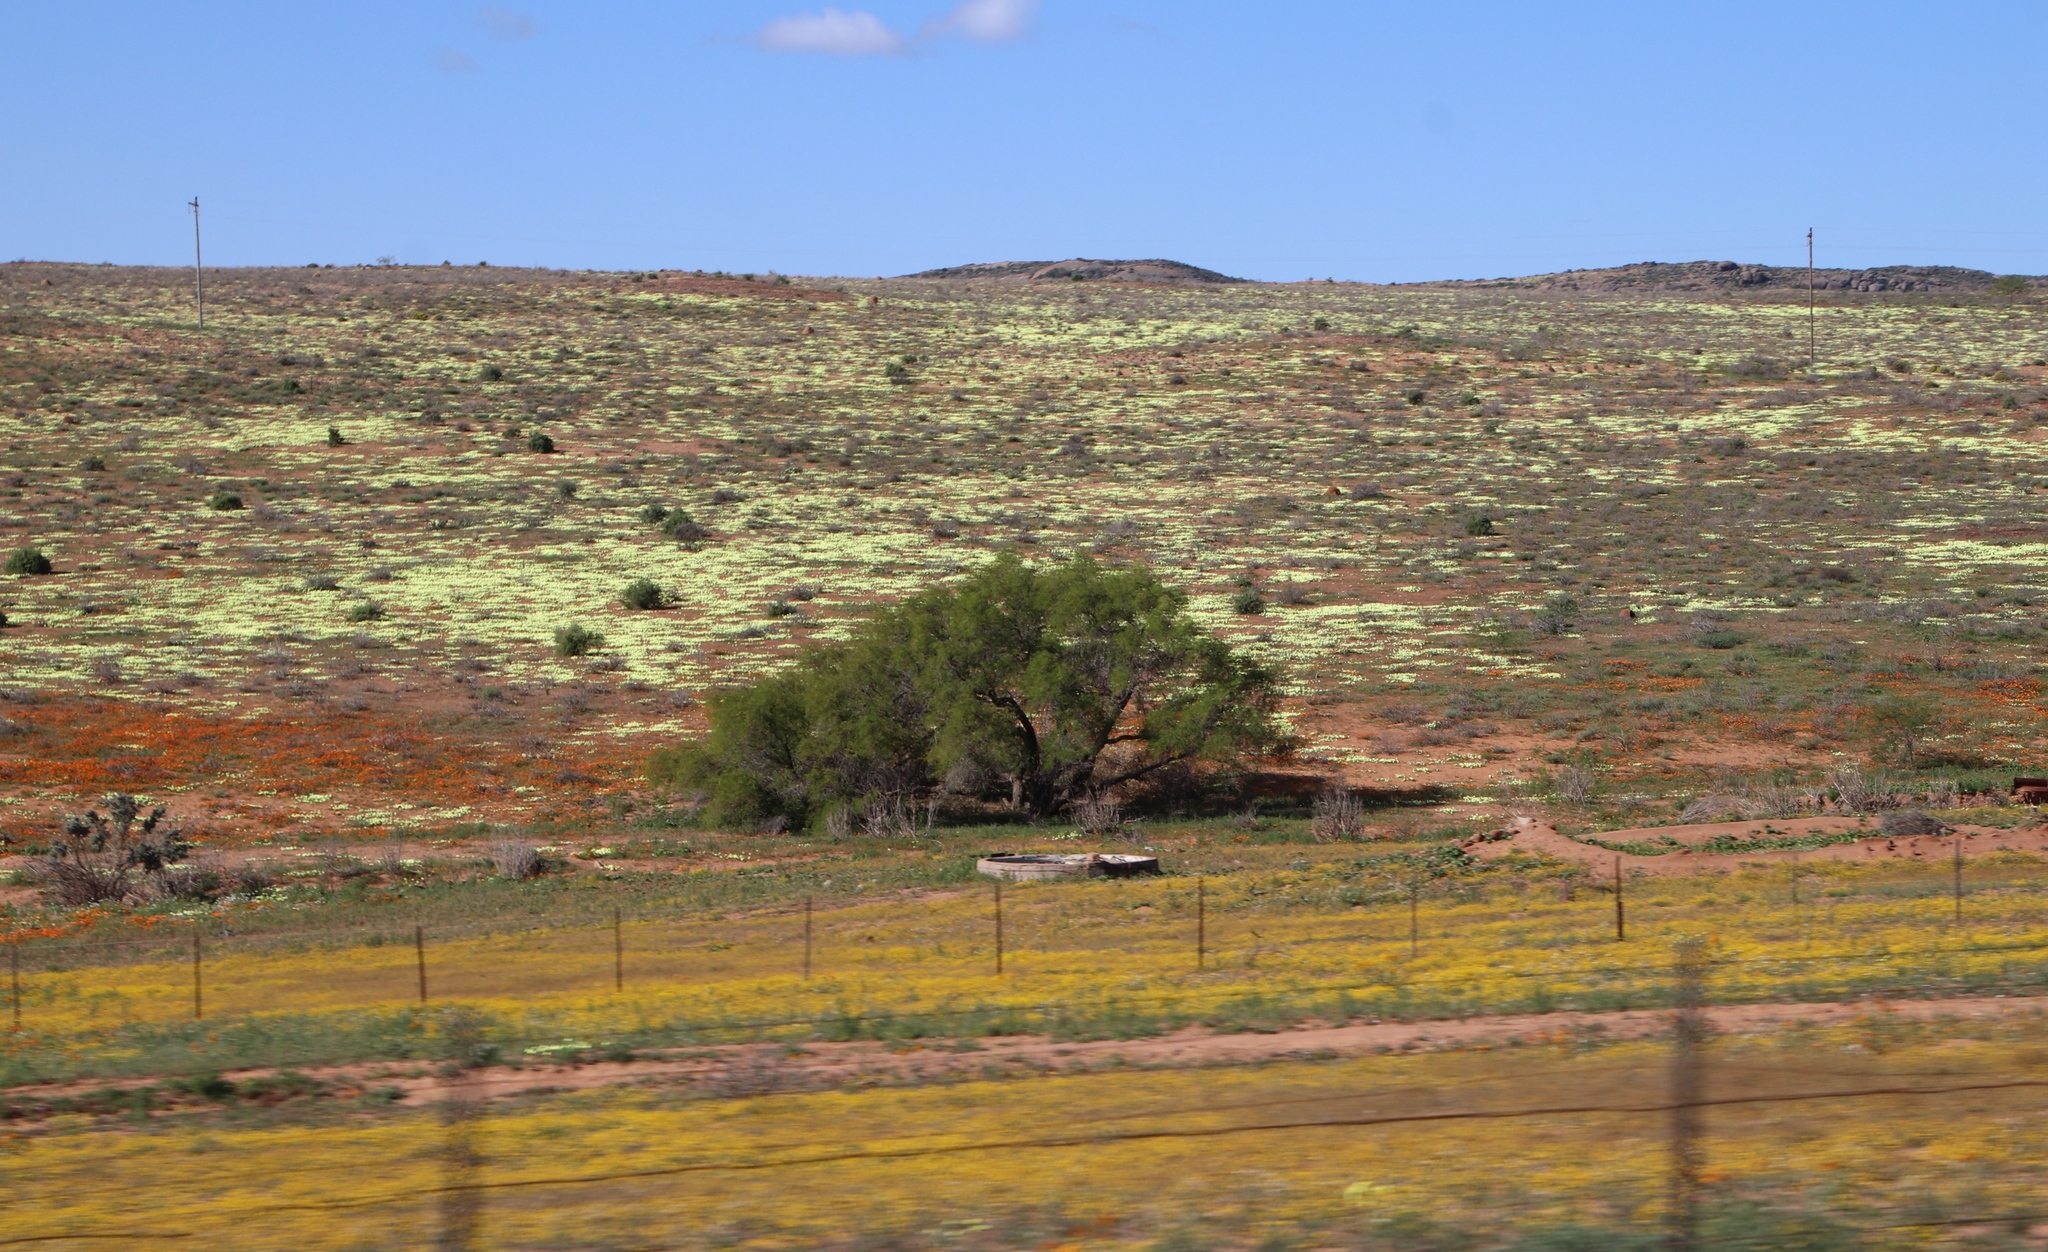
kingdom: Plantae
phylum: Tracheophyta
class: Magnoliopsida
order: Malvales
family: Neuradaceae
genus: Grielum
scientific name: Grielum humifusum
